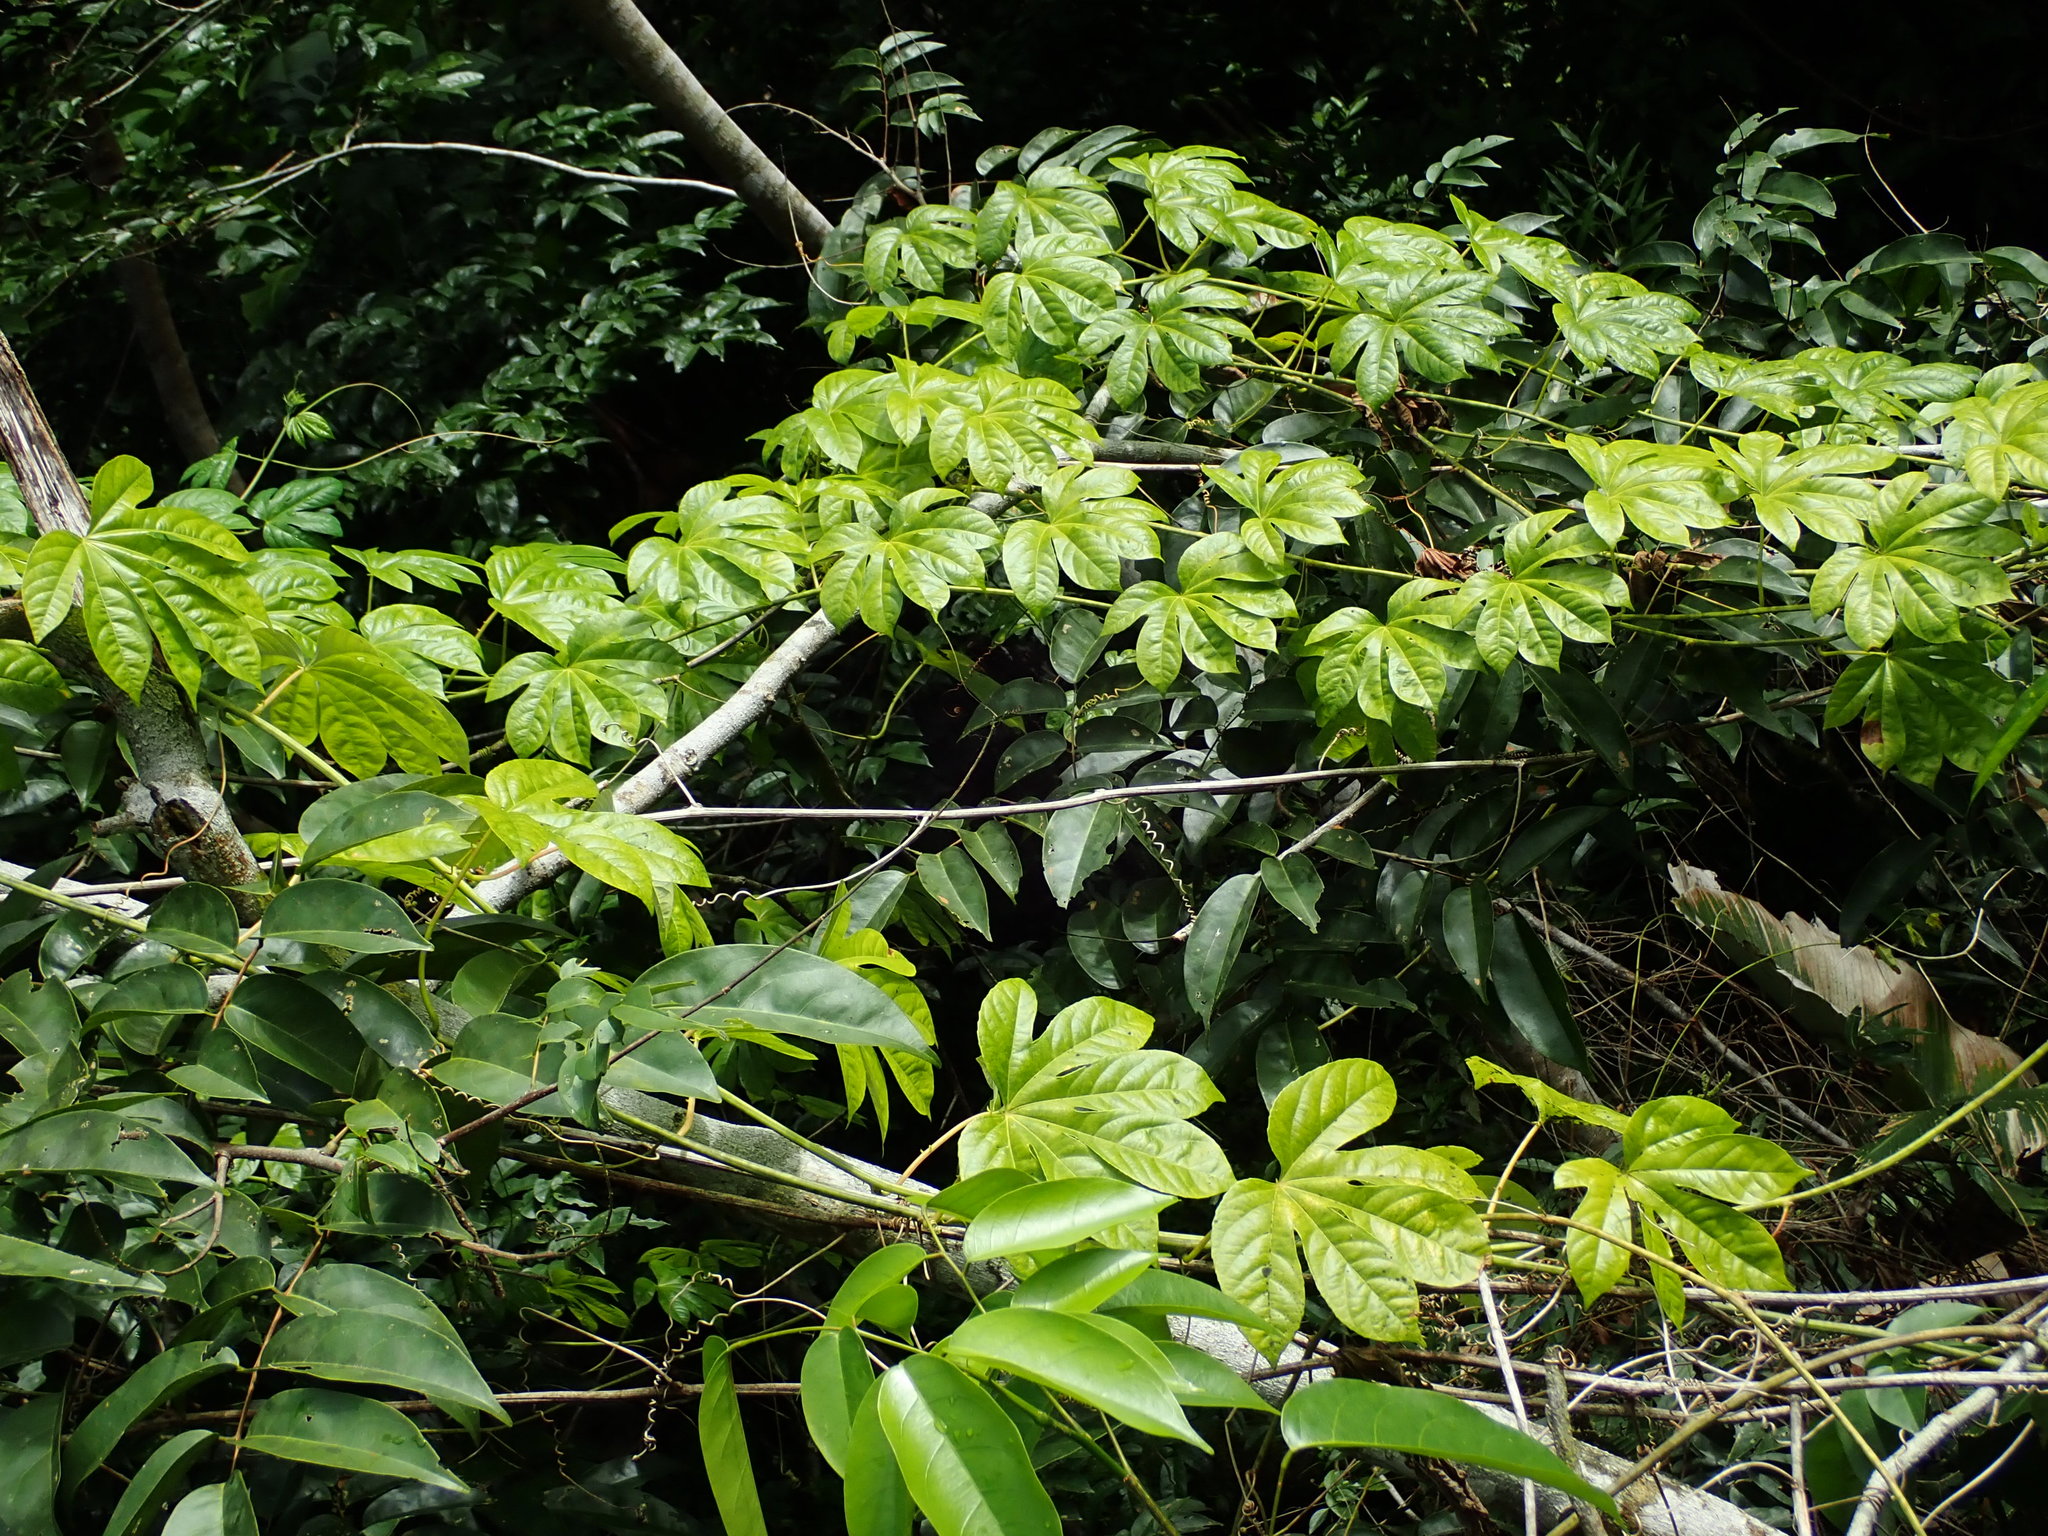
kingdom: Plantae
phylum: Tracheophyta
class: Magnoliopsida
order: Malpighiales
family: Passifloraceae
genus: Passiflora
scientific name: Passiflora serratodigitata
